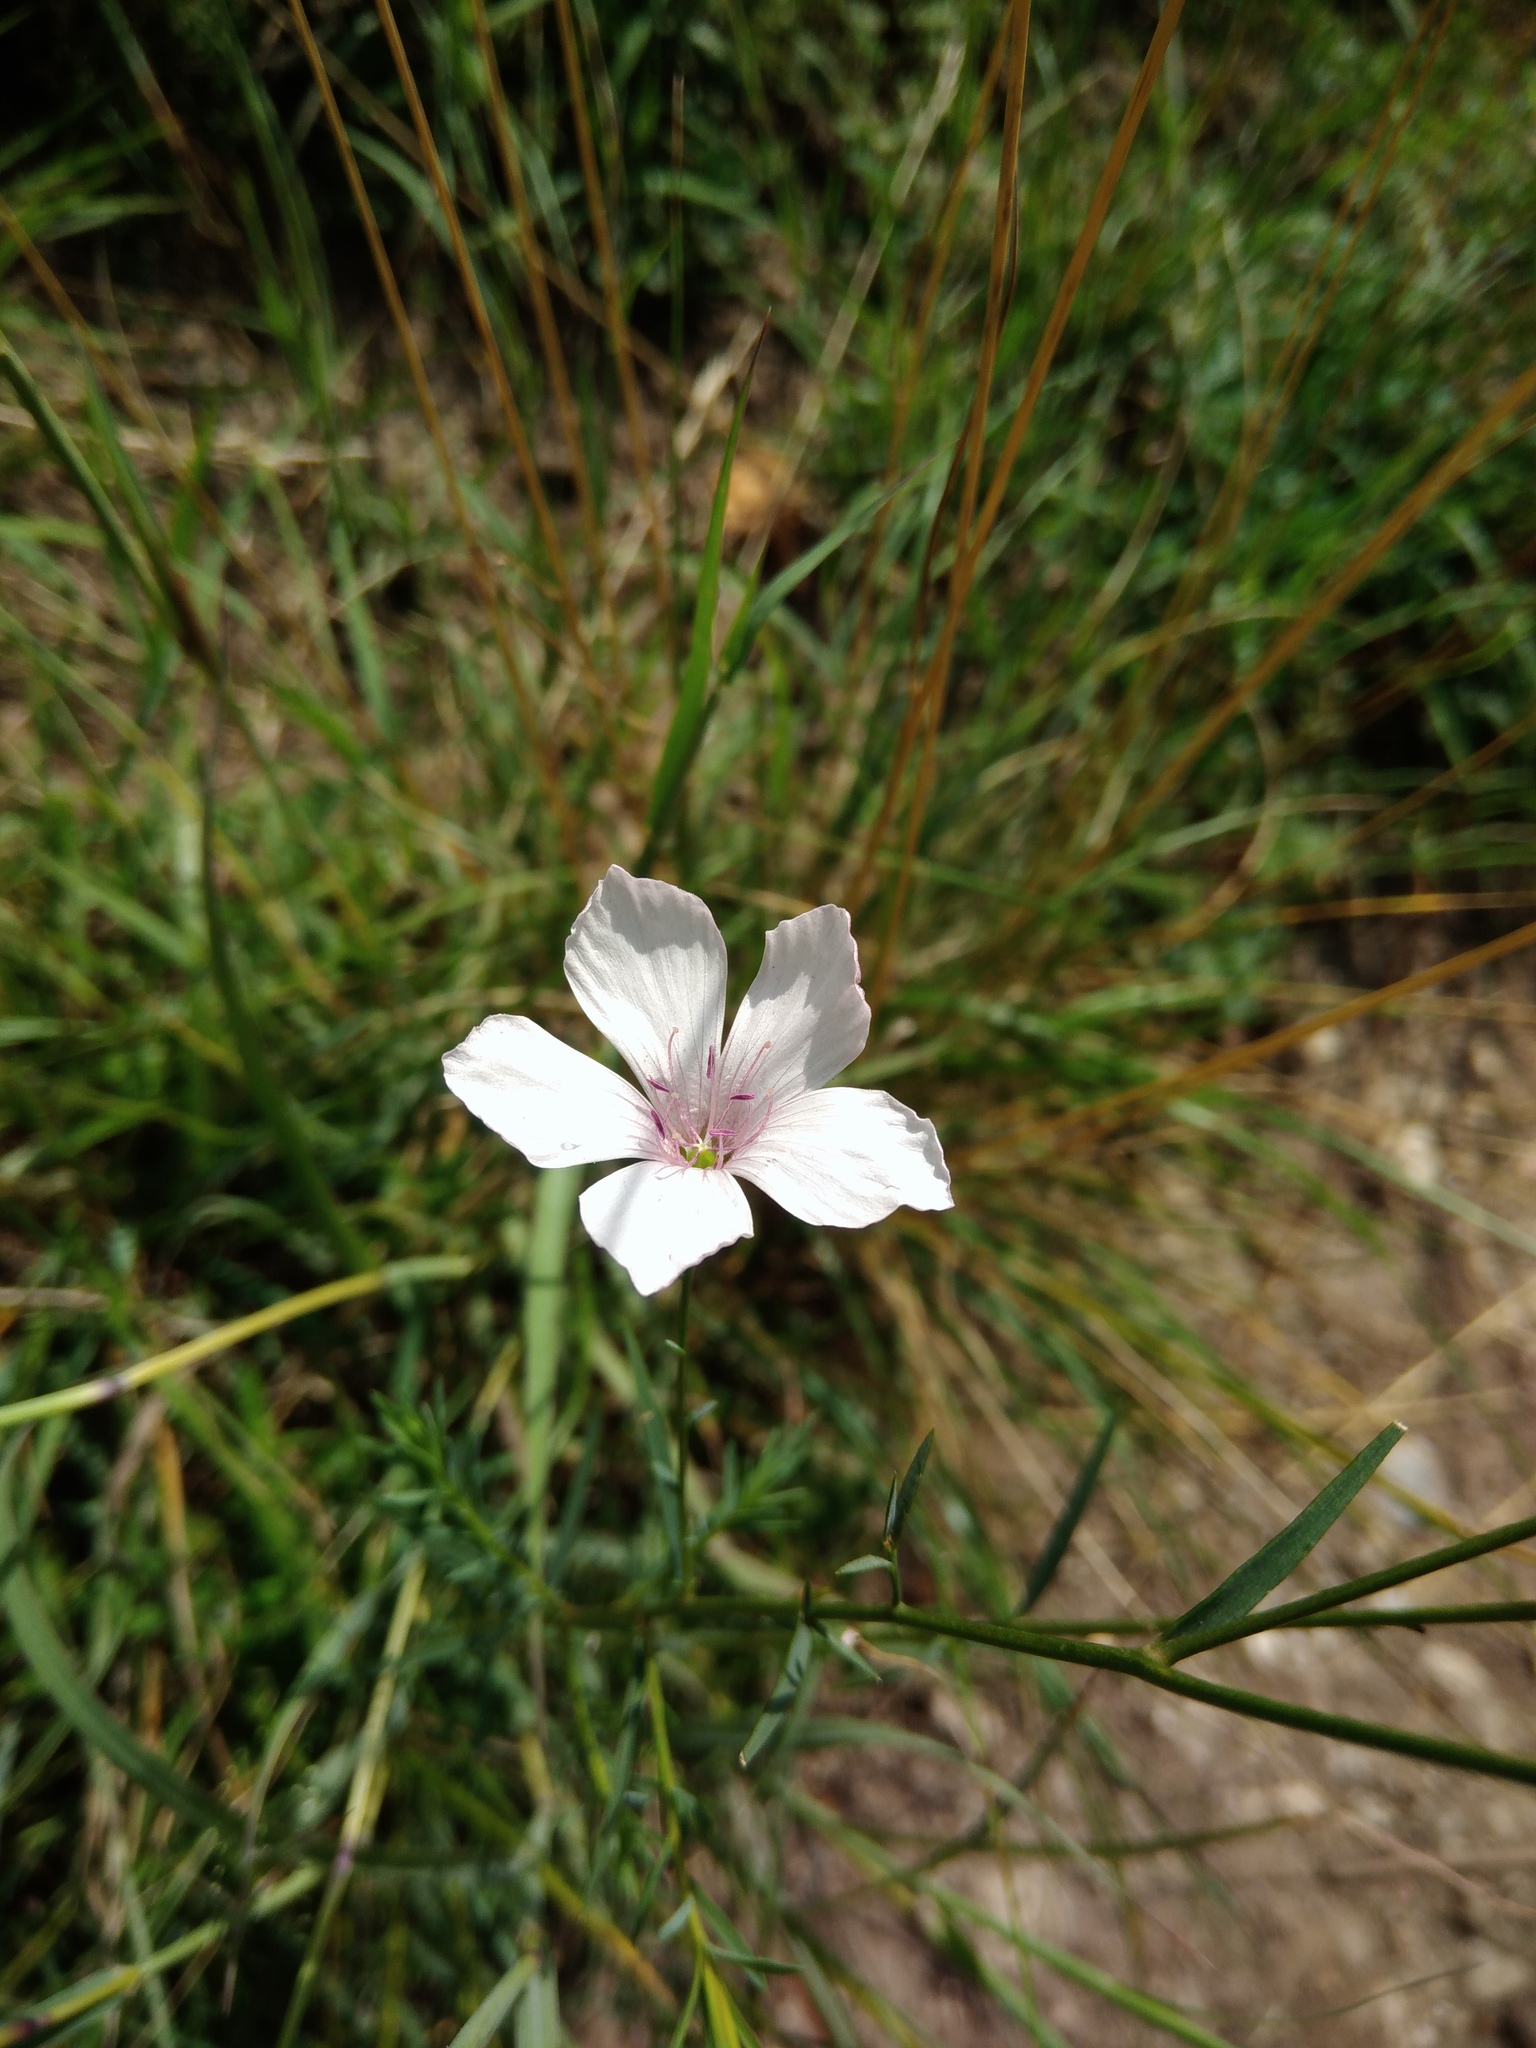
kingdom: Plantae
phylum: Tracheophyta
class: Magnoliopsida
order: Malpighiales
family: Linaceae
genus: Linum
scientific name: Linum tenuifolium
